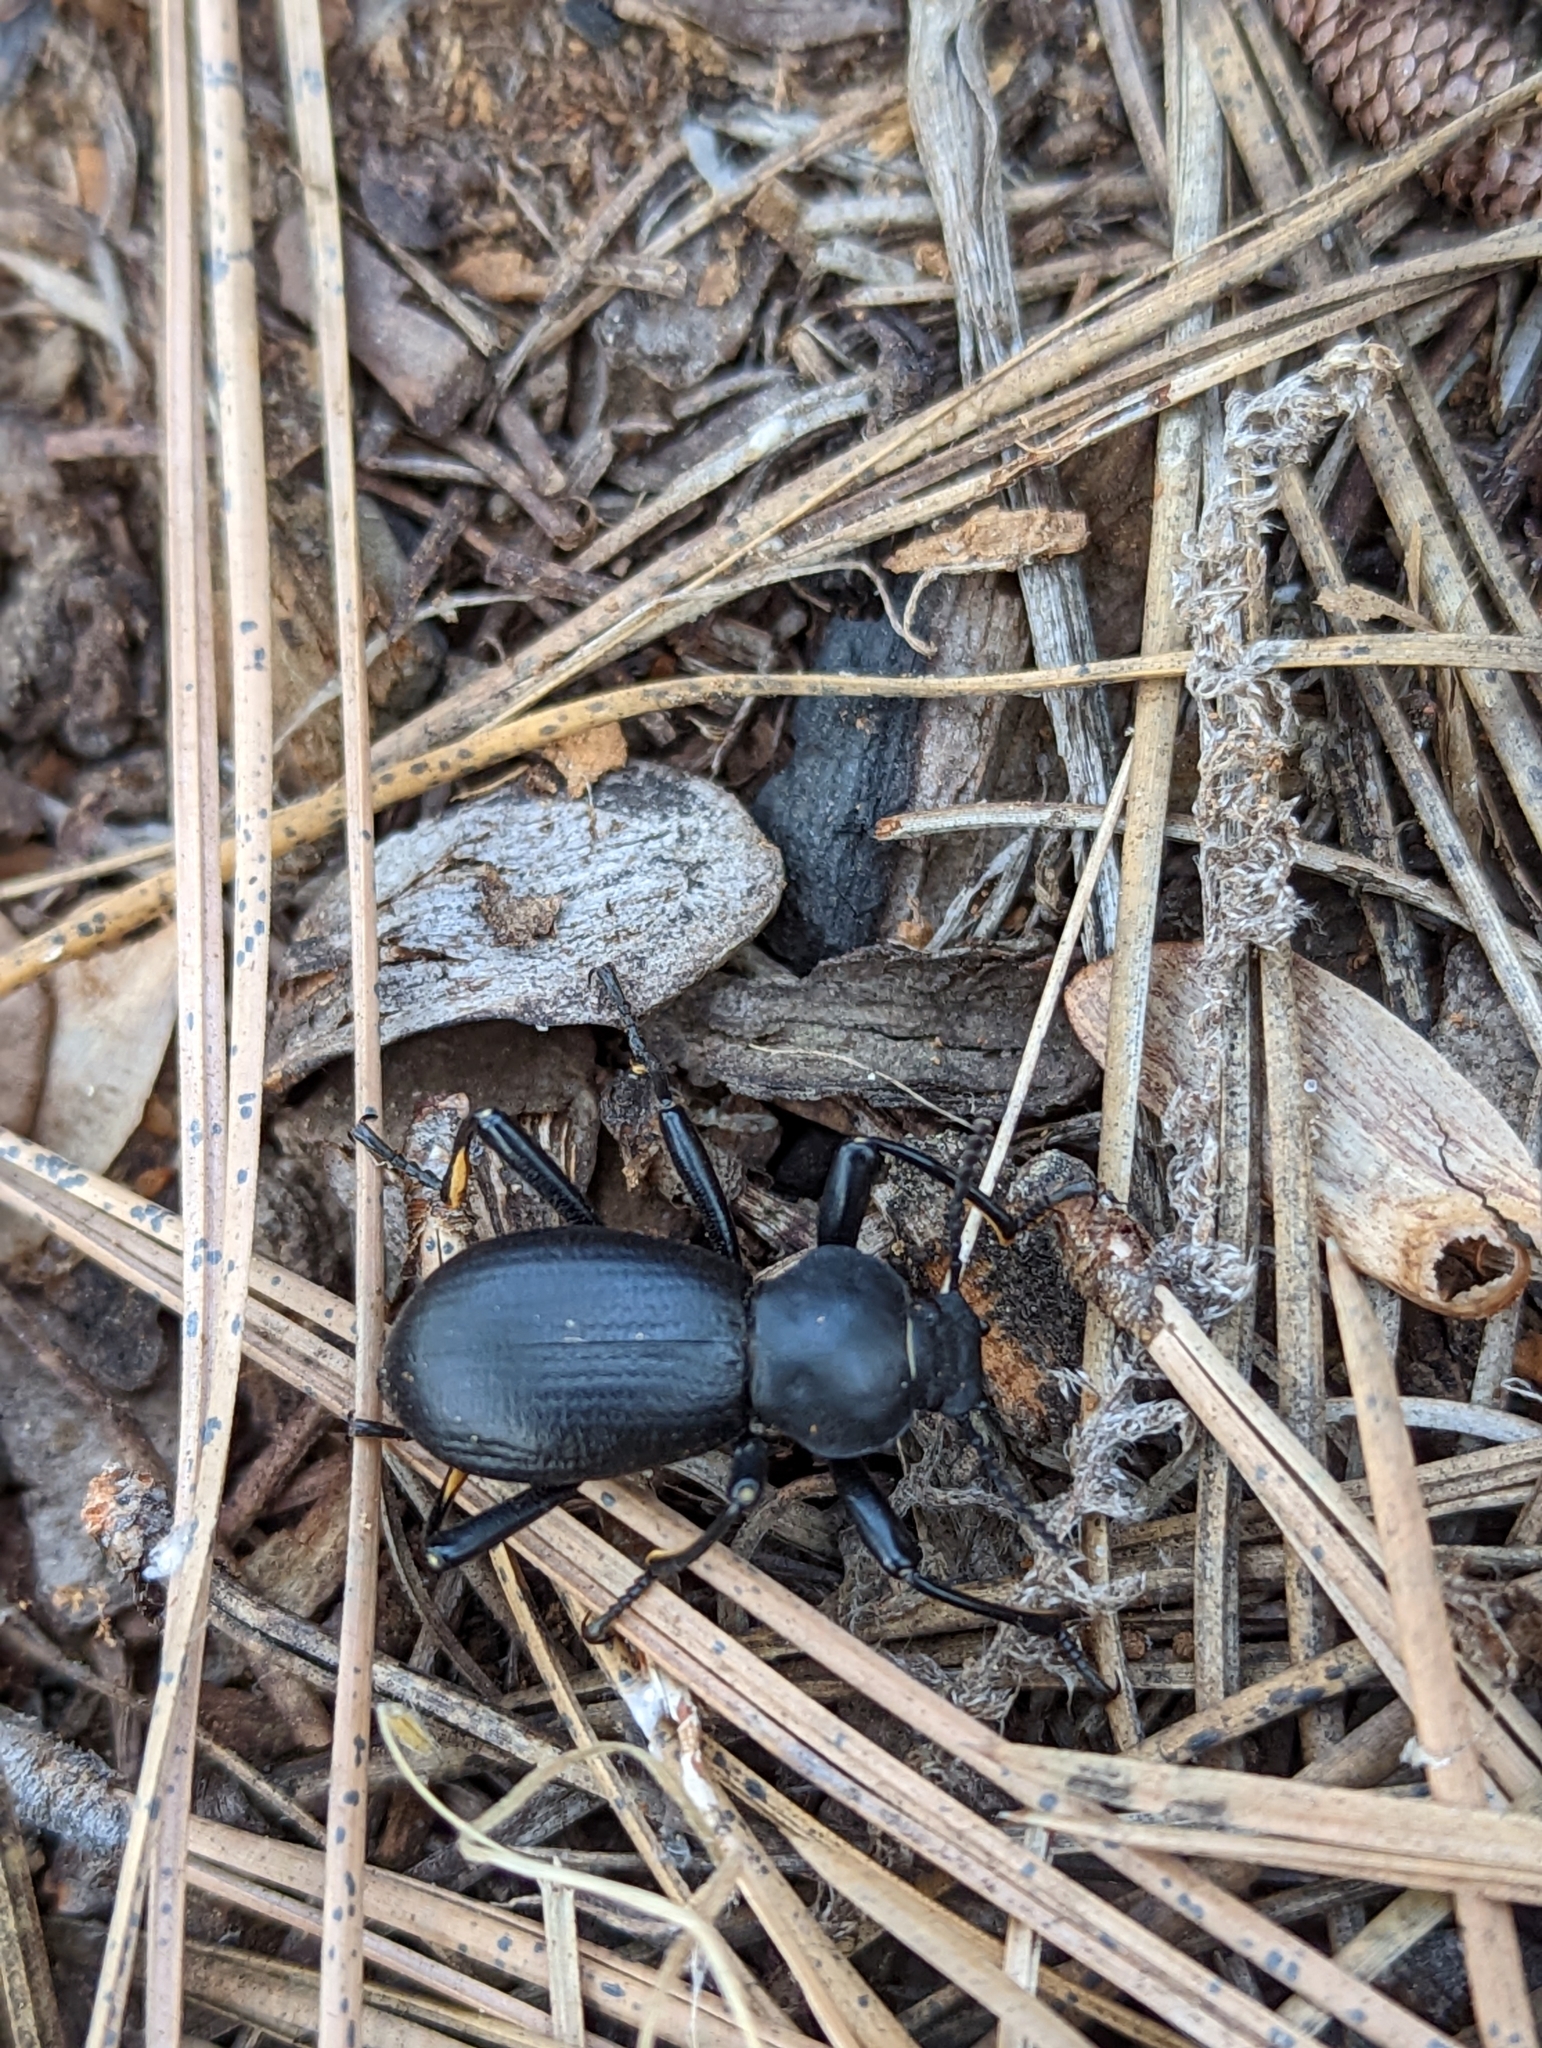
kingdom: Animalia
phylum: Arthropoda
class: Insecta
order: Coleoptera
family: Tenebrionidae
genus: Coelocnemis
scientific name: Coelocnemis dilaticollis
